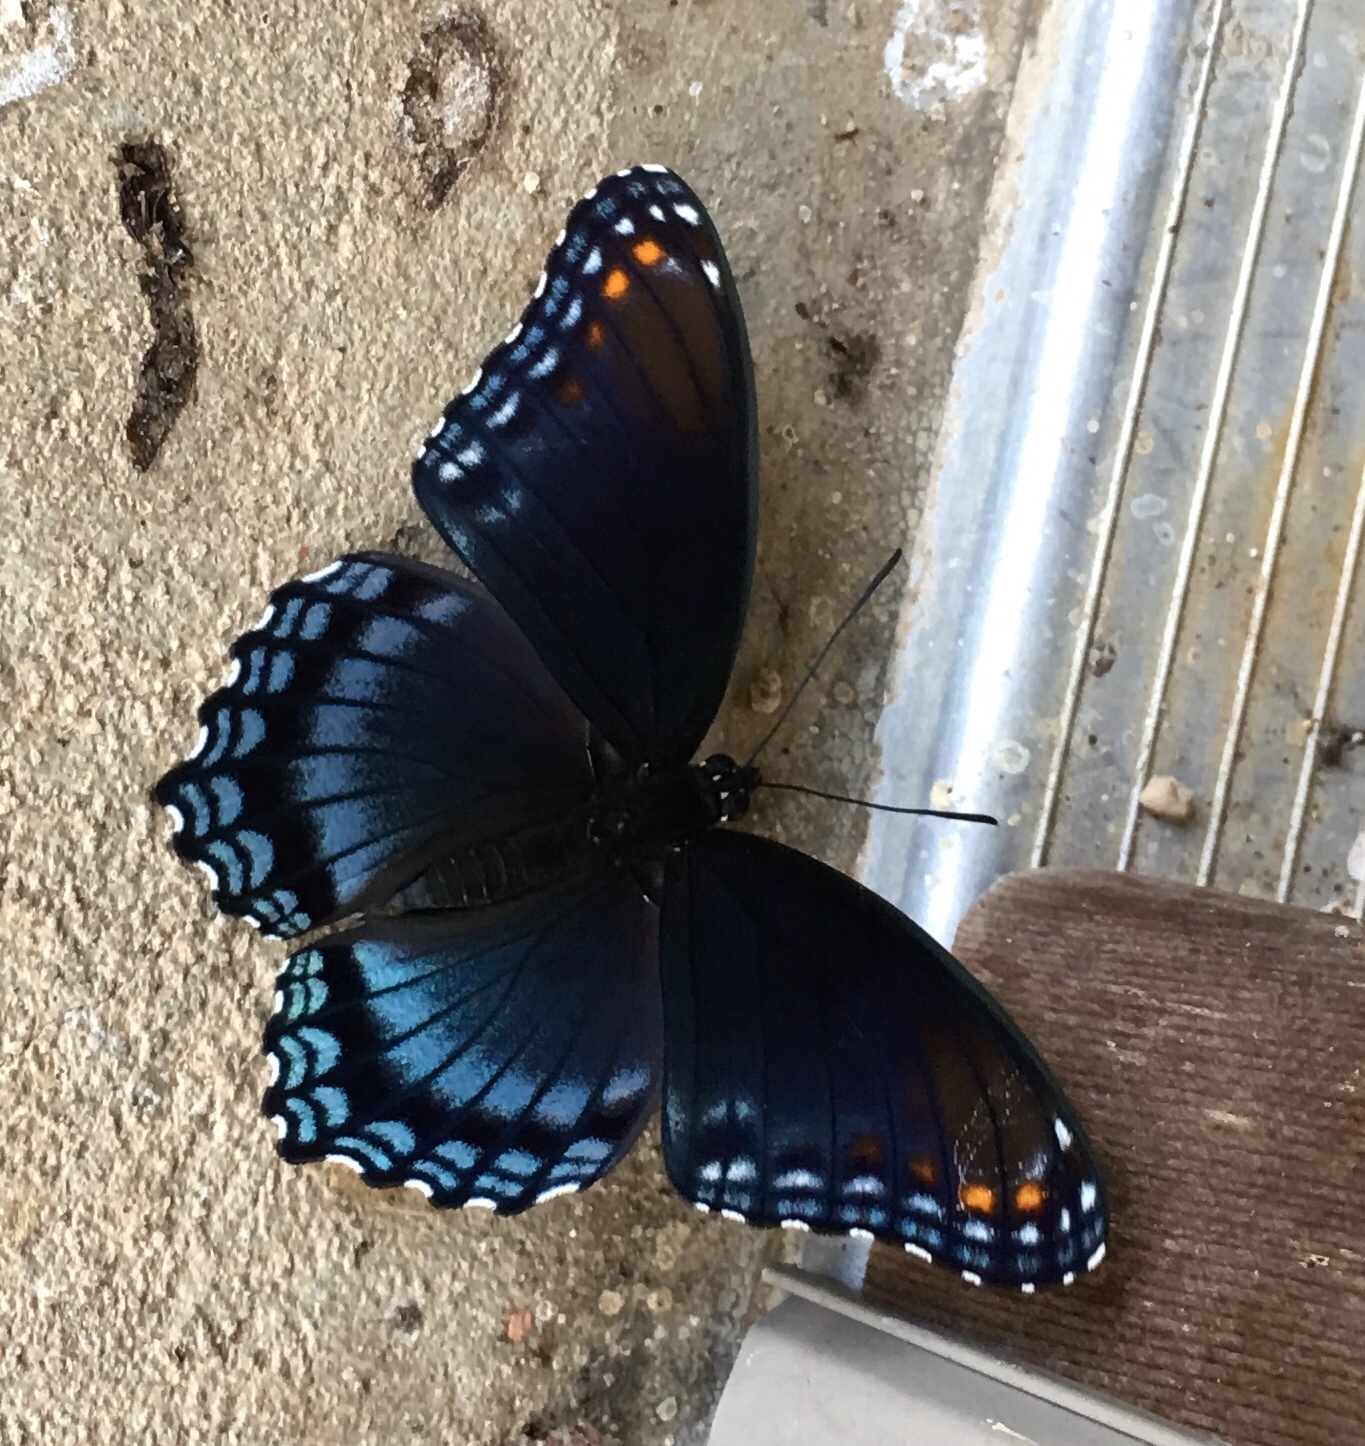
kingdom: Animalia
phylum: Arthropoda
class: Insecta
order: Lepidoptera
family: Nymphalidae
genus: Limenitis
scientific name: Limenitis arthemis
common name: Red-spotted admiral
